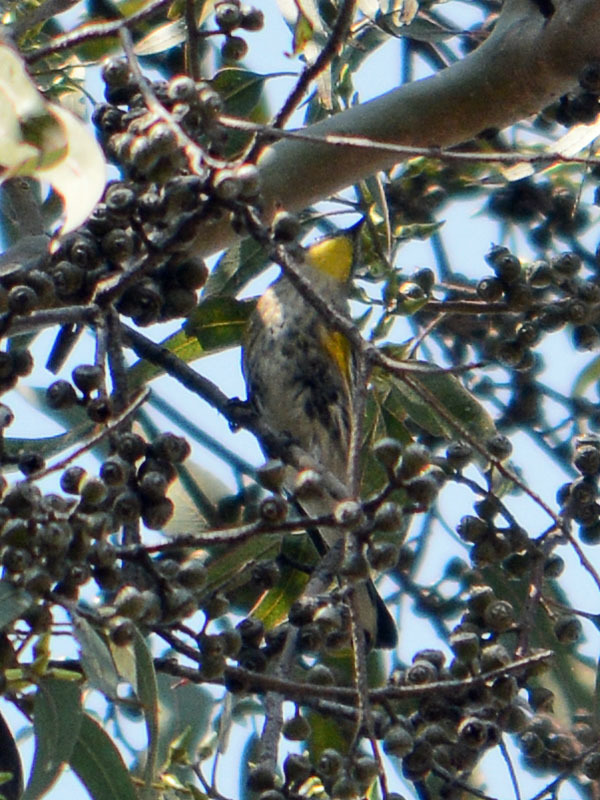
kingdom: Animalia
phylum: Chordata
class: Aves
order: Passeriformes
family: Parulidae
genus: Setophaga
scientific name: Setophaga auduboni
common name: Audubon's warbler
